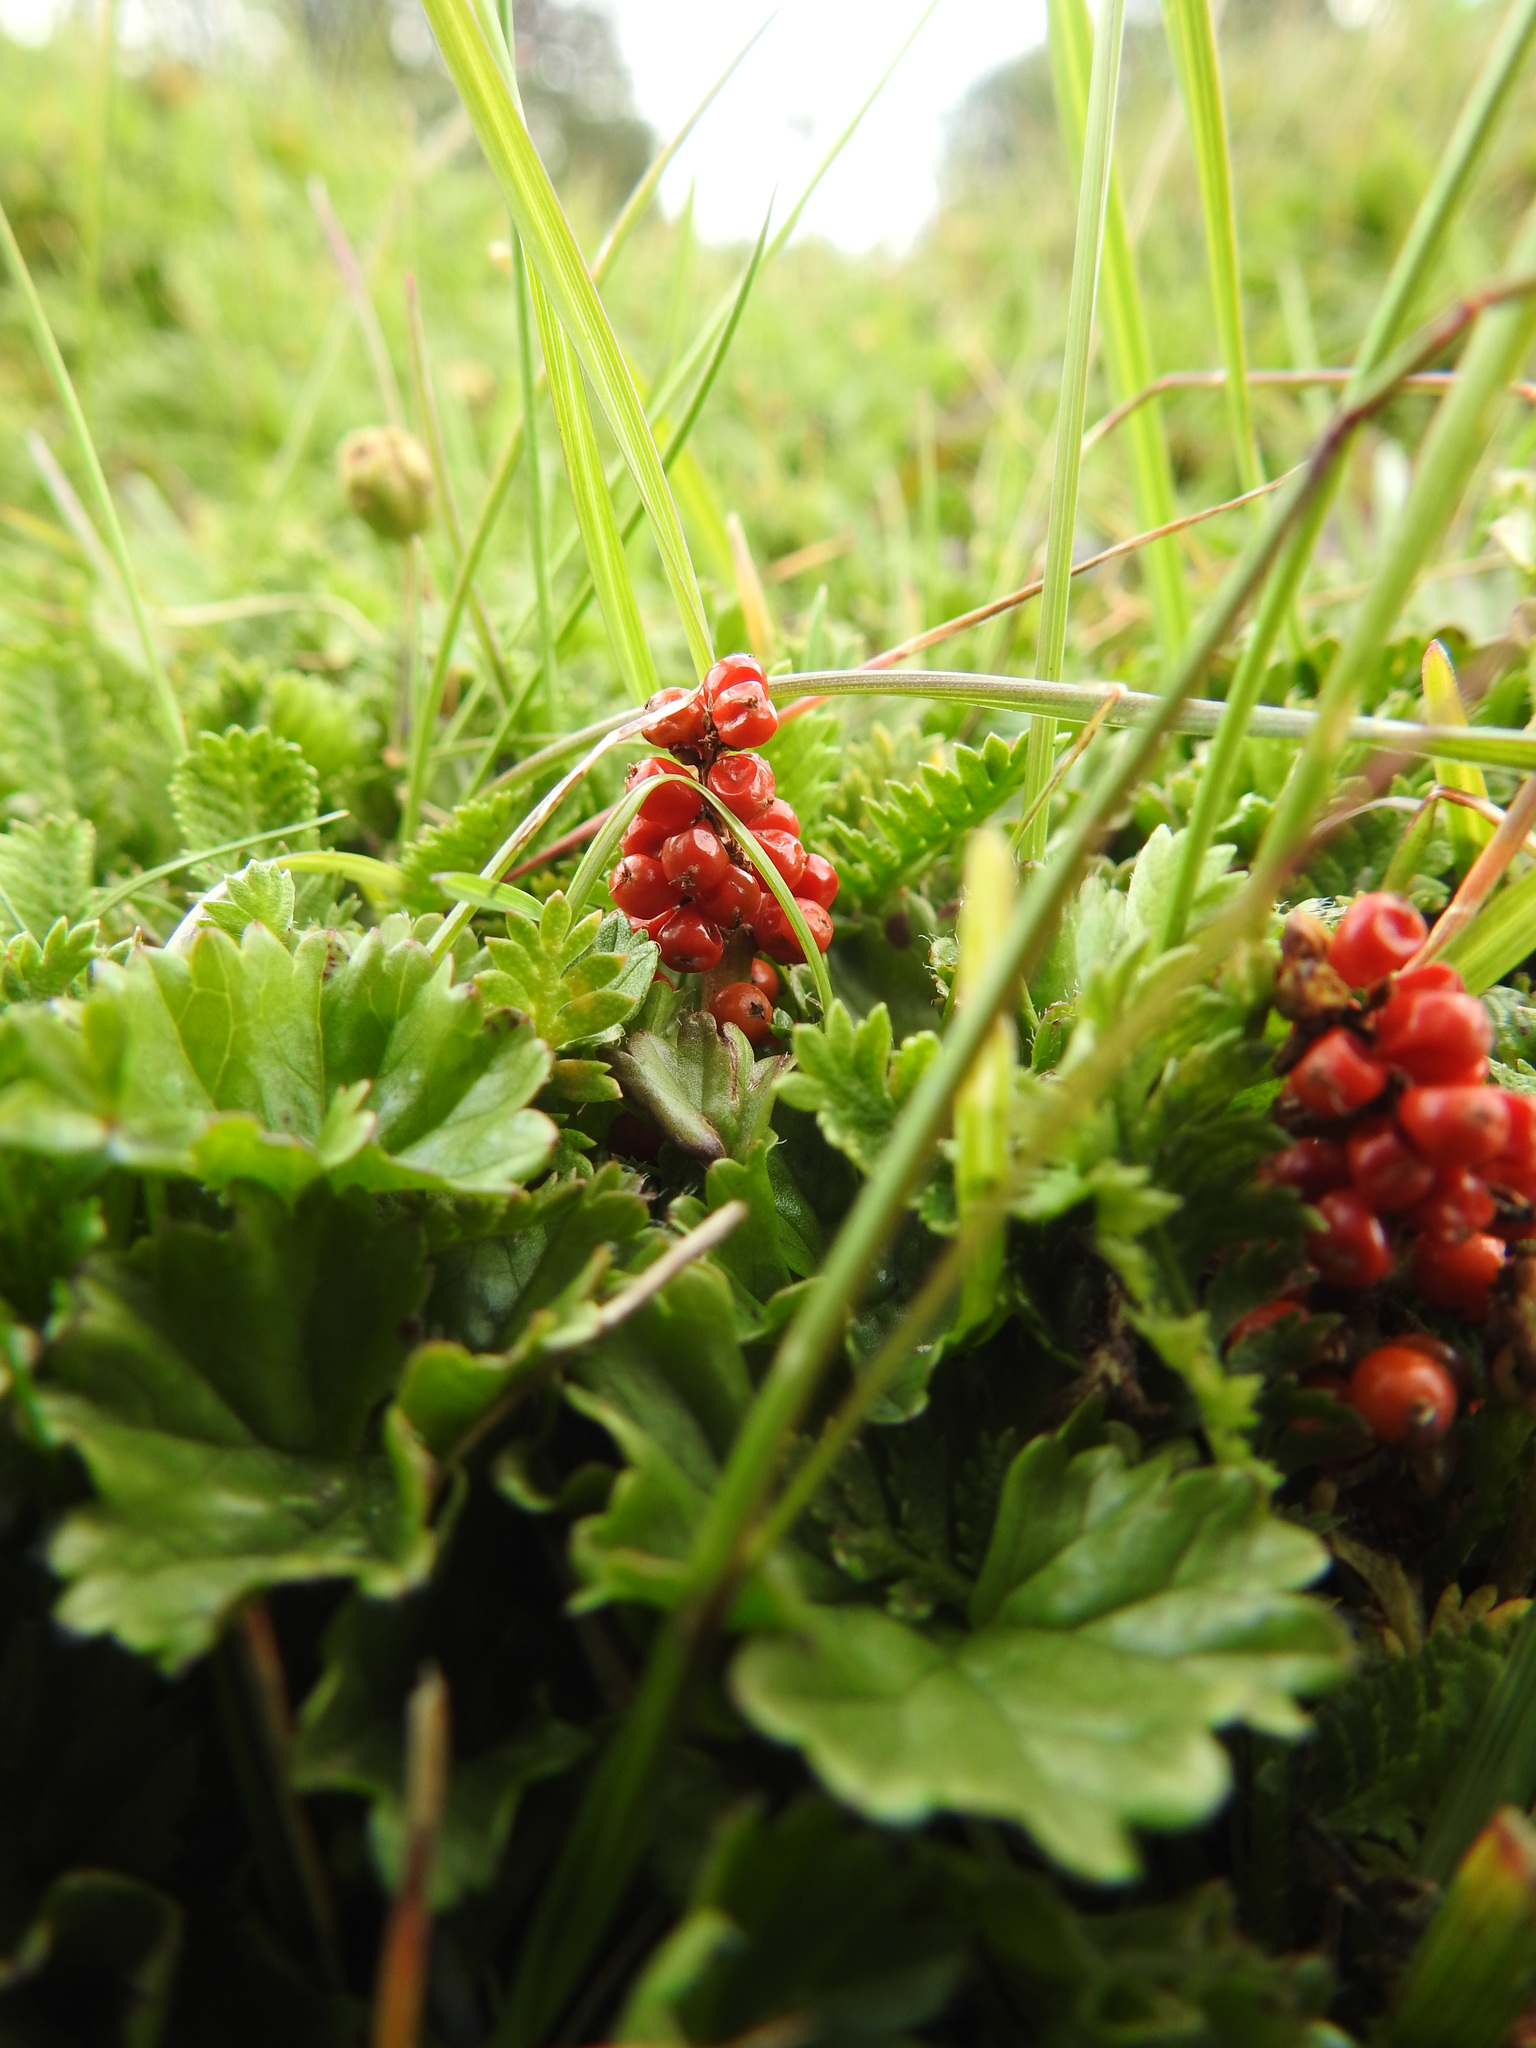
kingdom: Plantae
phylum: Tracheophyta
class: Magnoliopsida
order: Gunnerales
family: Gunneraceae
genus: Gunnera
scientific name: Gunnera magellanica
